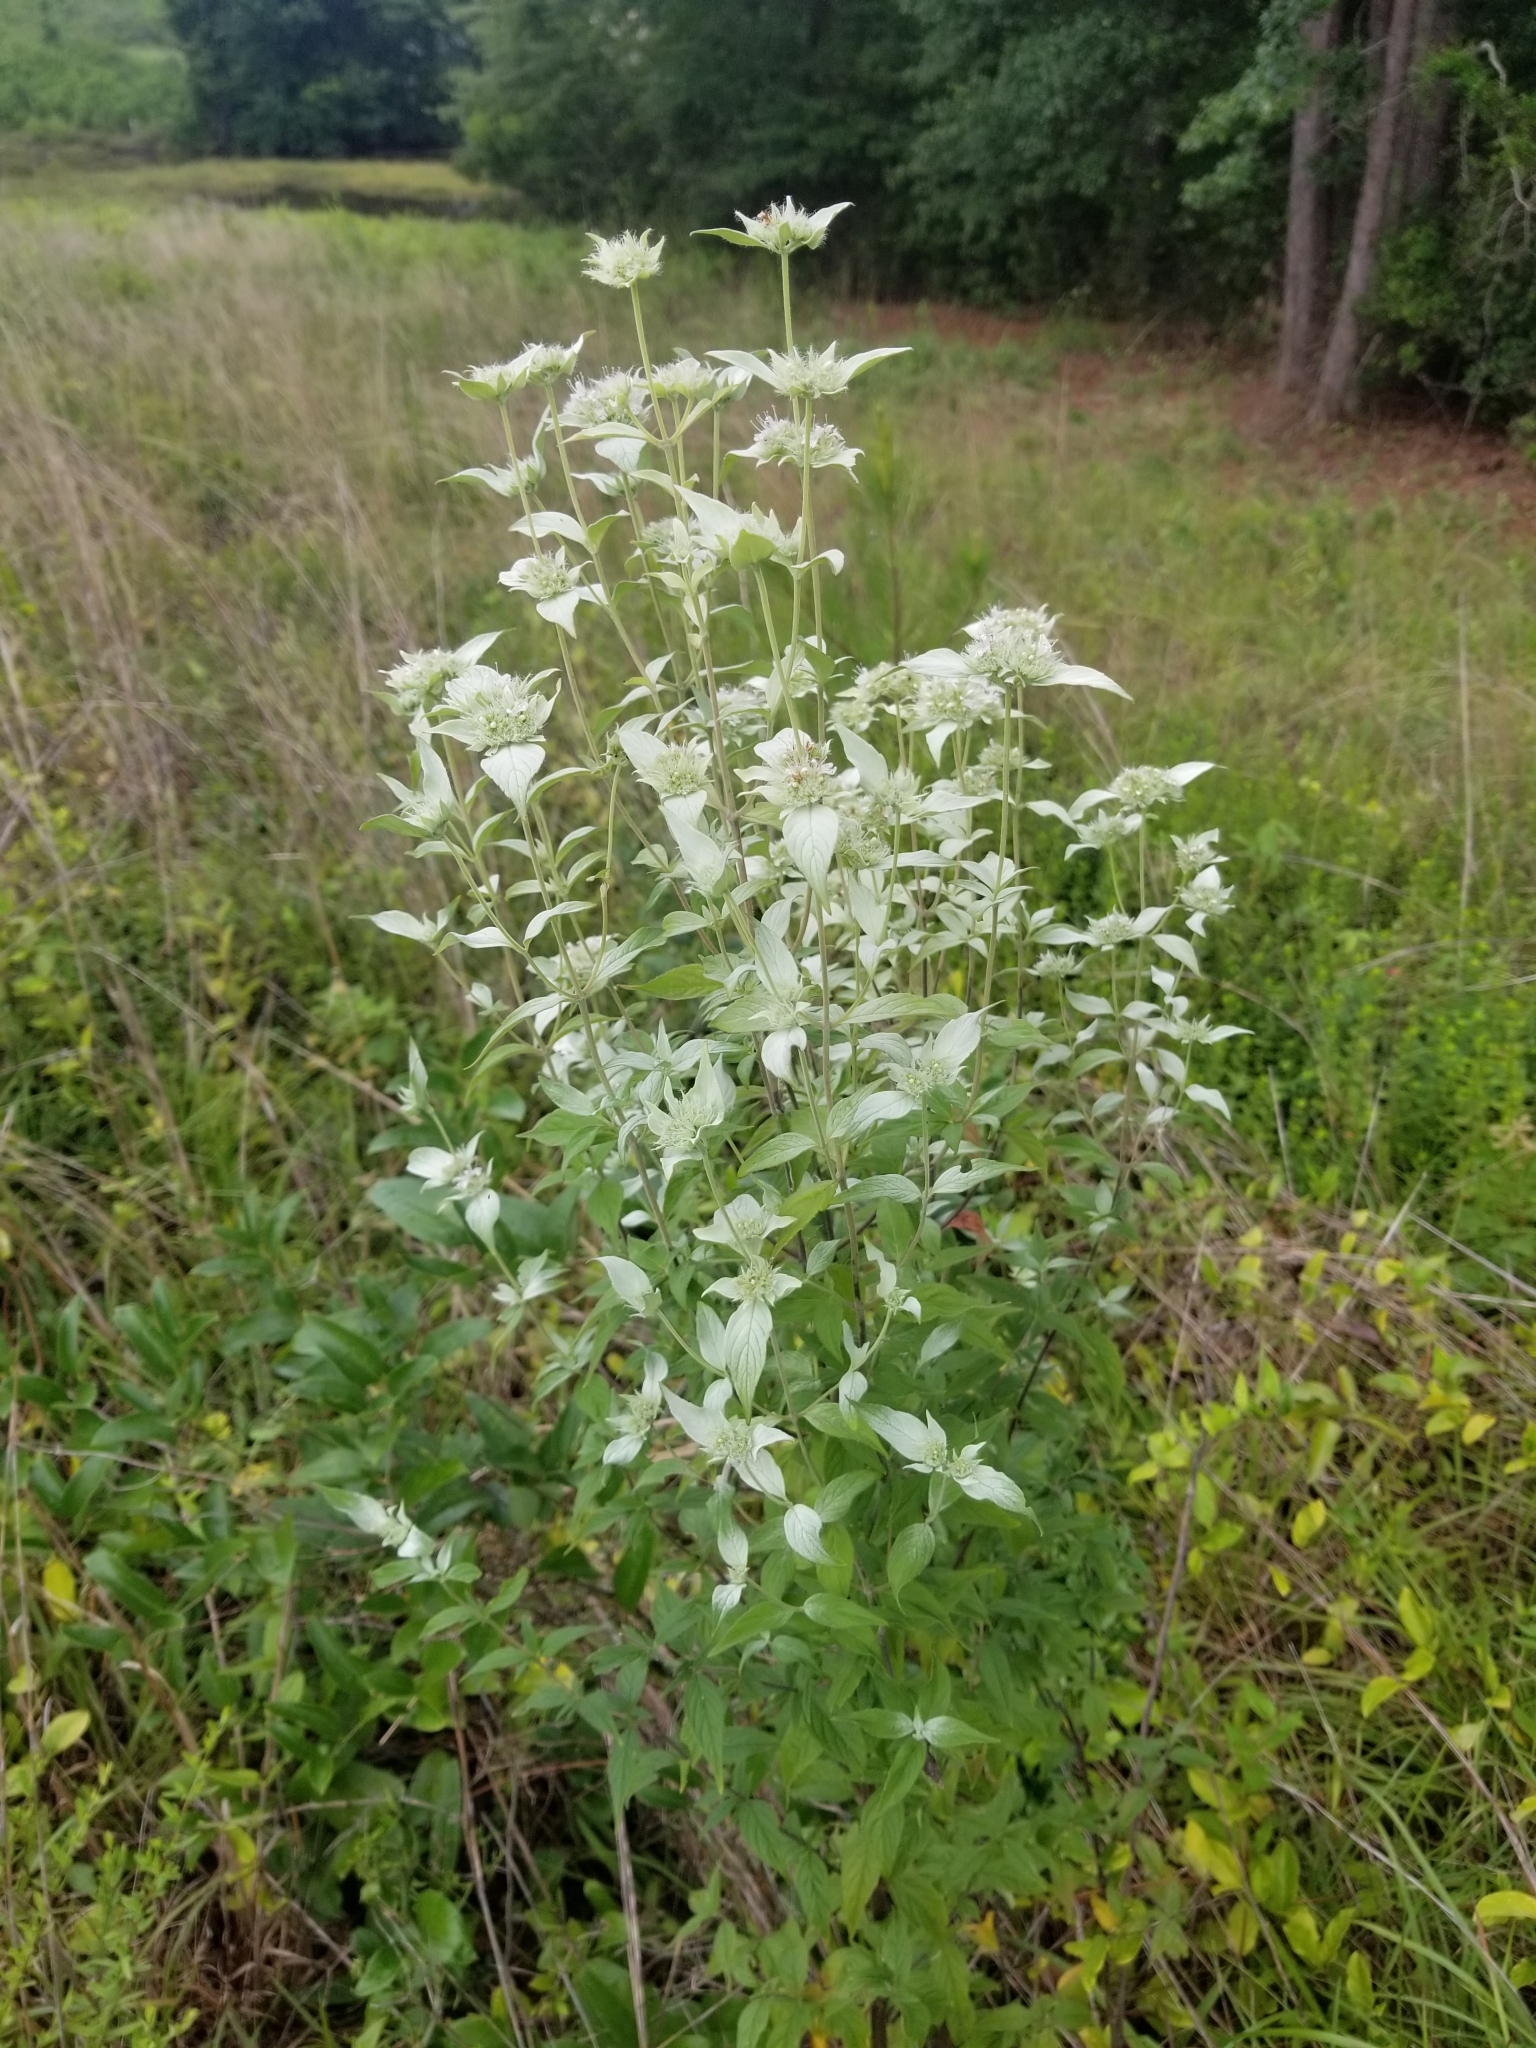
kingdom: Plantae
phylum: Tracheophyta
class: Magnoliopsida
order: Lamiales
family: Lamiaceae
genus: Pycnanthemum
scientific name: Pycnanthemum albescens
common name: White-leaf mountain-mint
